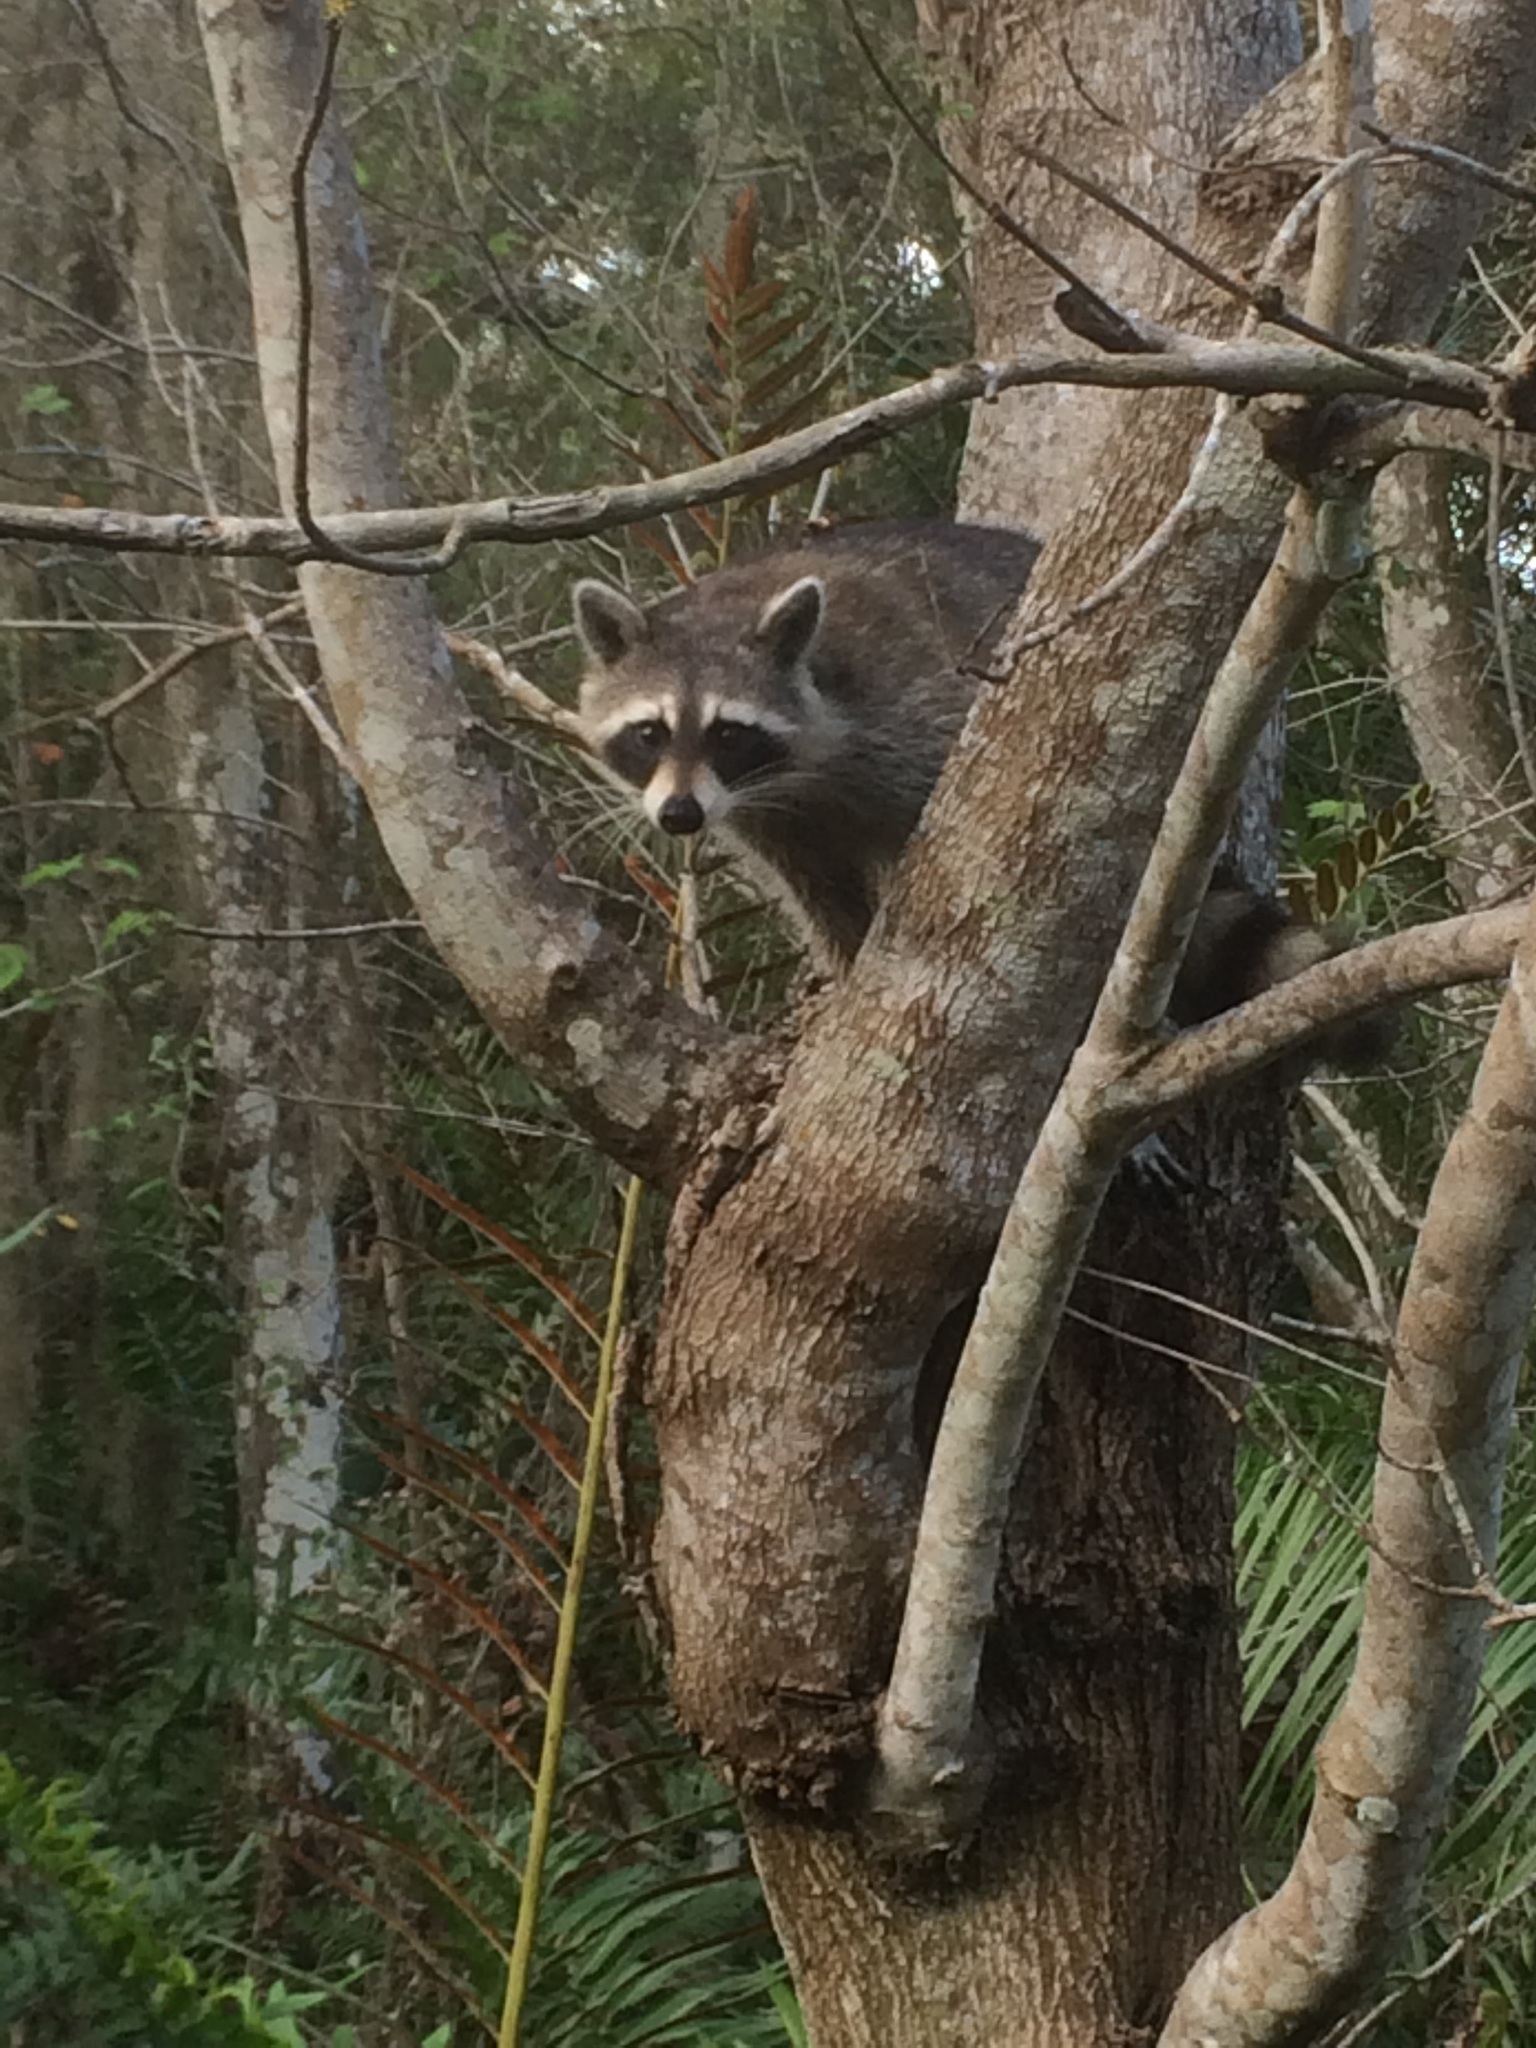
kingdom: Animalia
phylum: Chordata
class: Mammalia
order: Carnivora
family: Procyonidae
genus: Procyon
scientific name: Procyon lotor
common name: Raccoon
